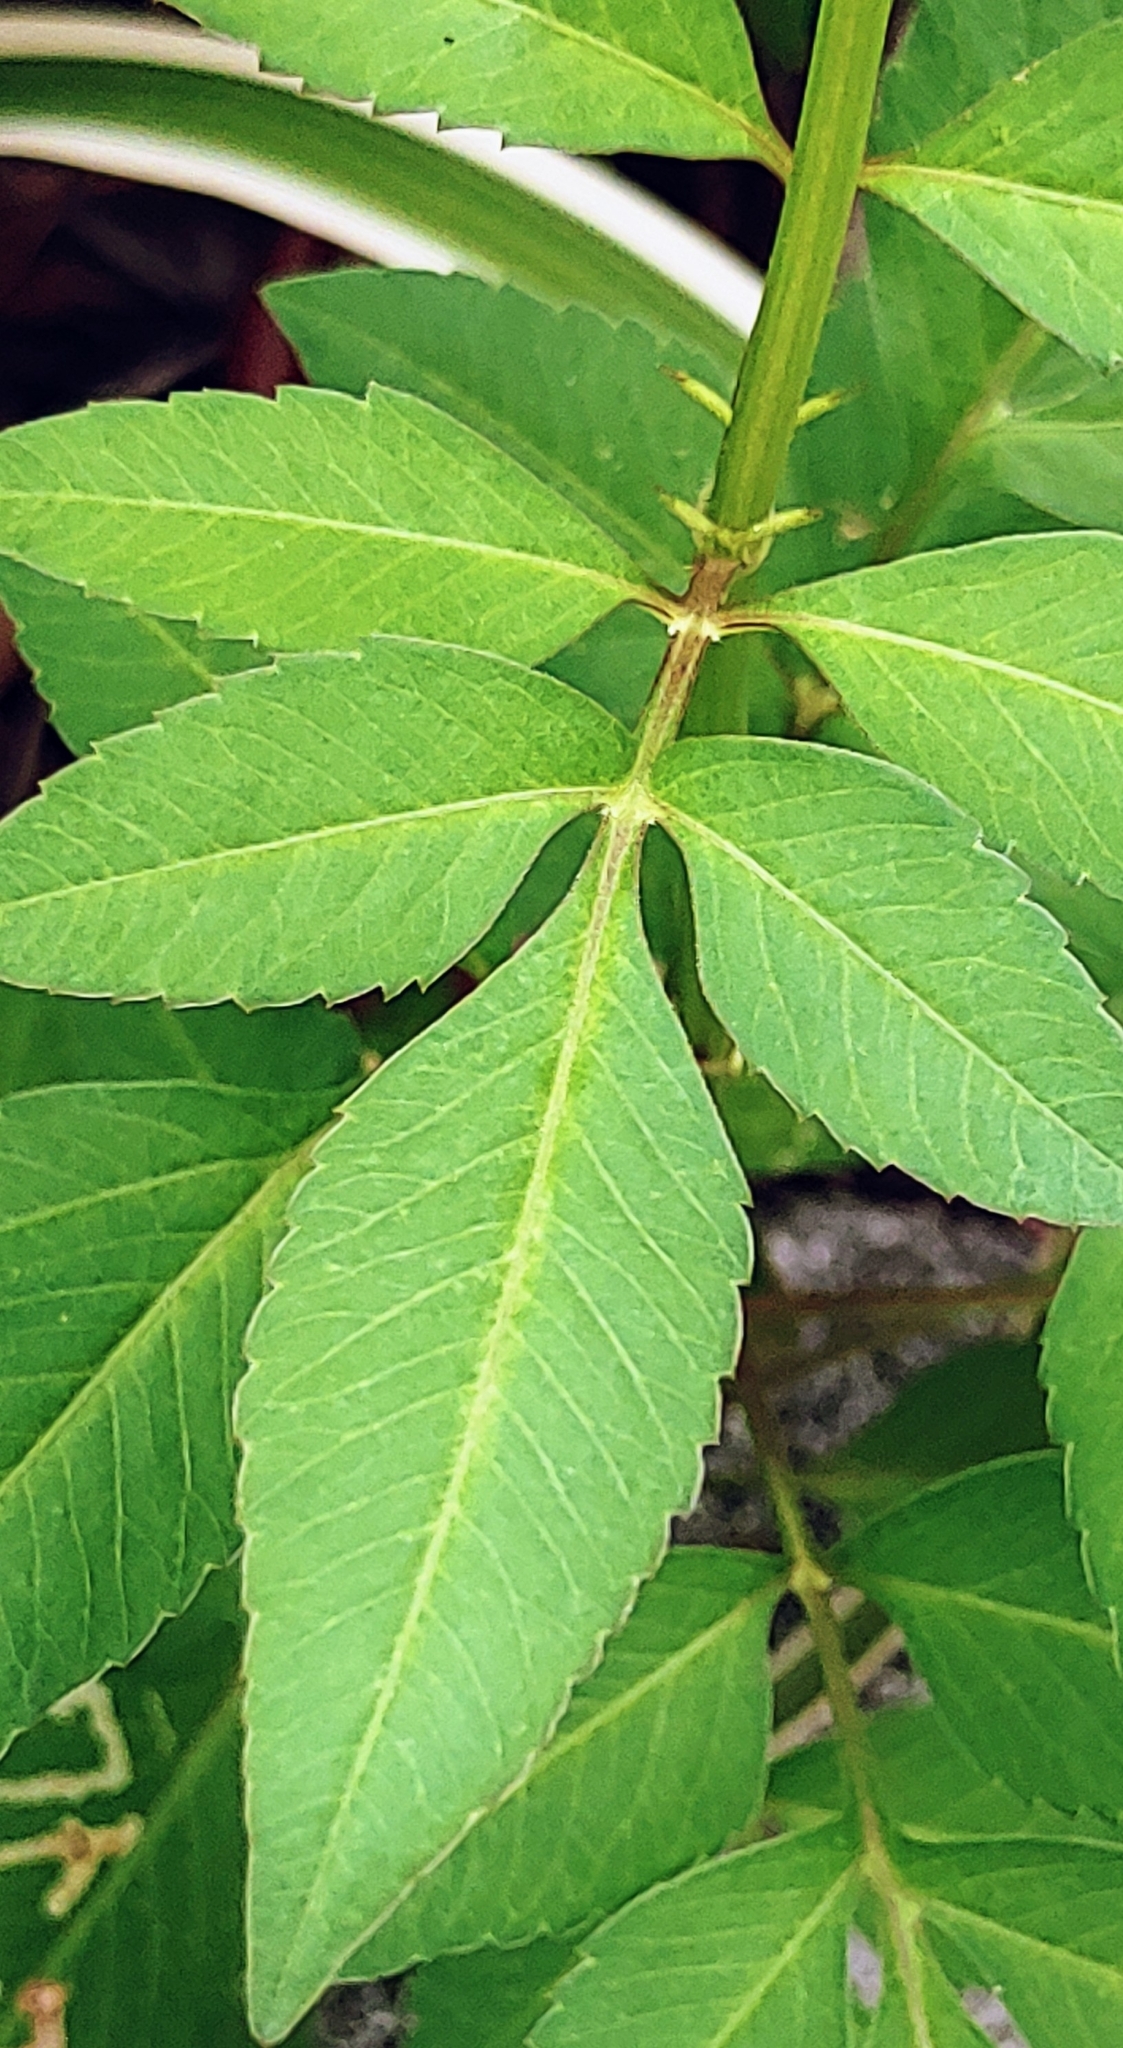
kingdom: Plantae
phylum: Tracheophyta
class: Magnoliopsida
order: Asterales
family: Asteraceae
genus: Bidens
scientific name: Bidens alba
